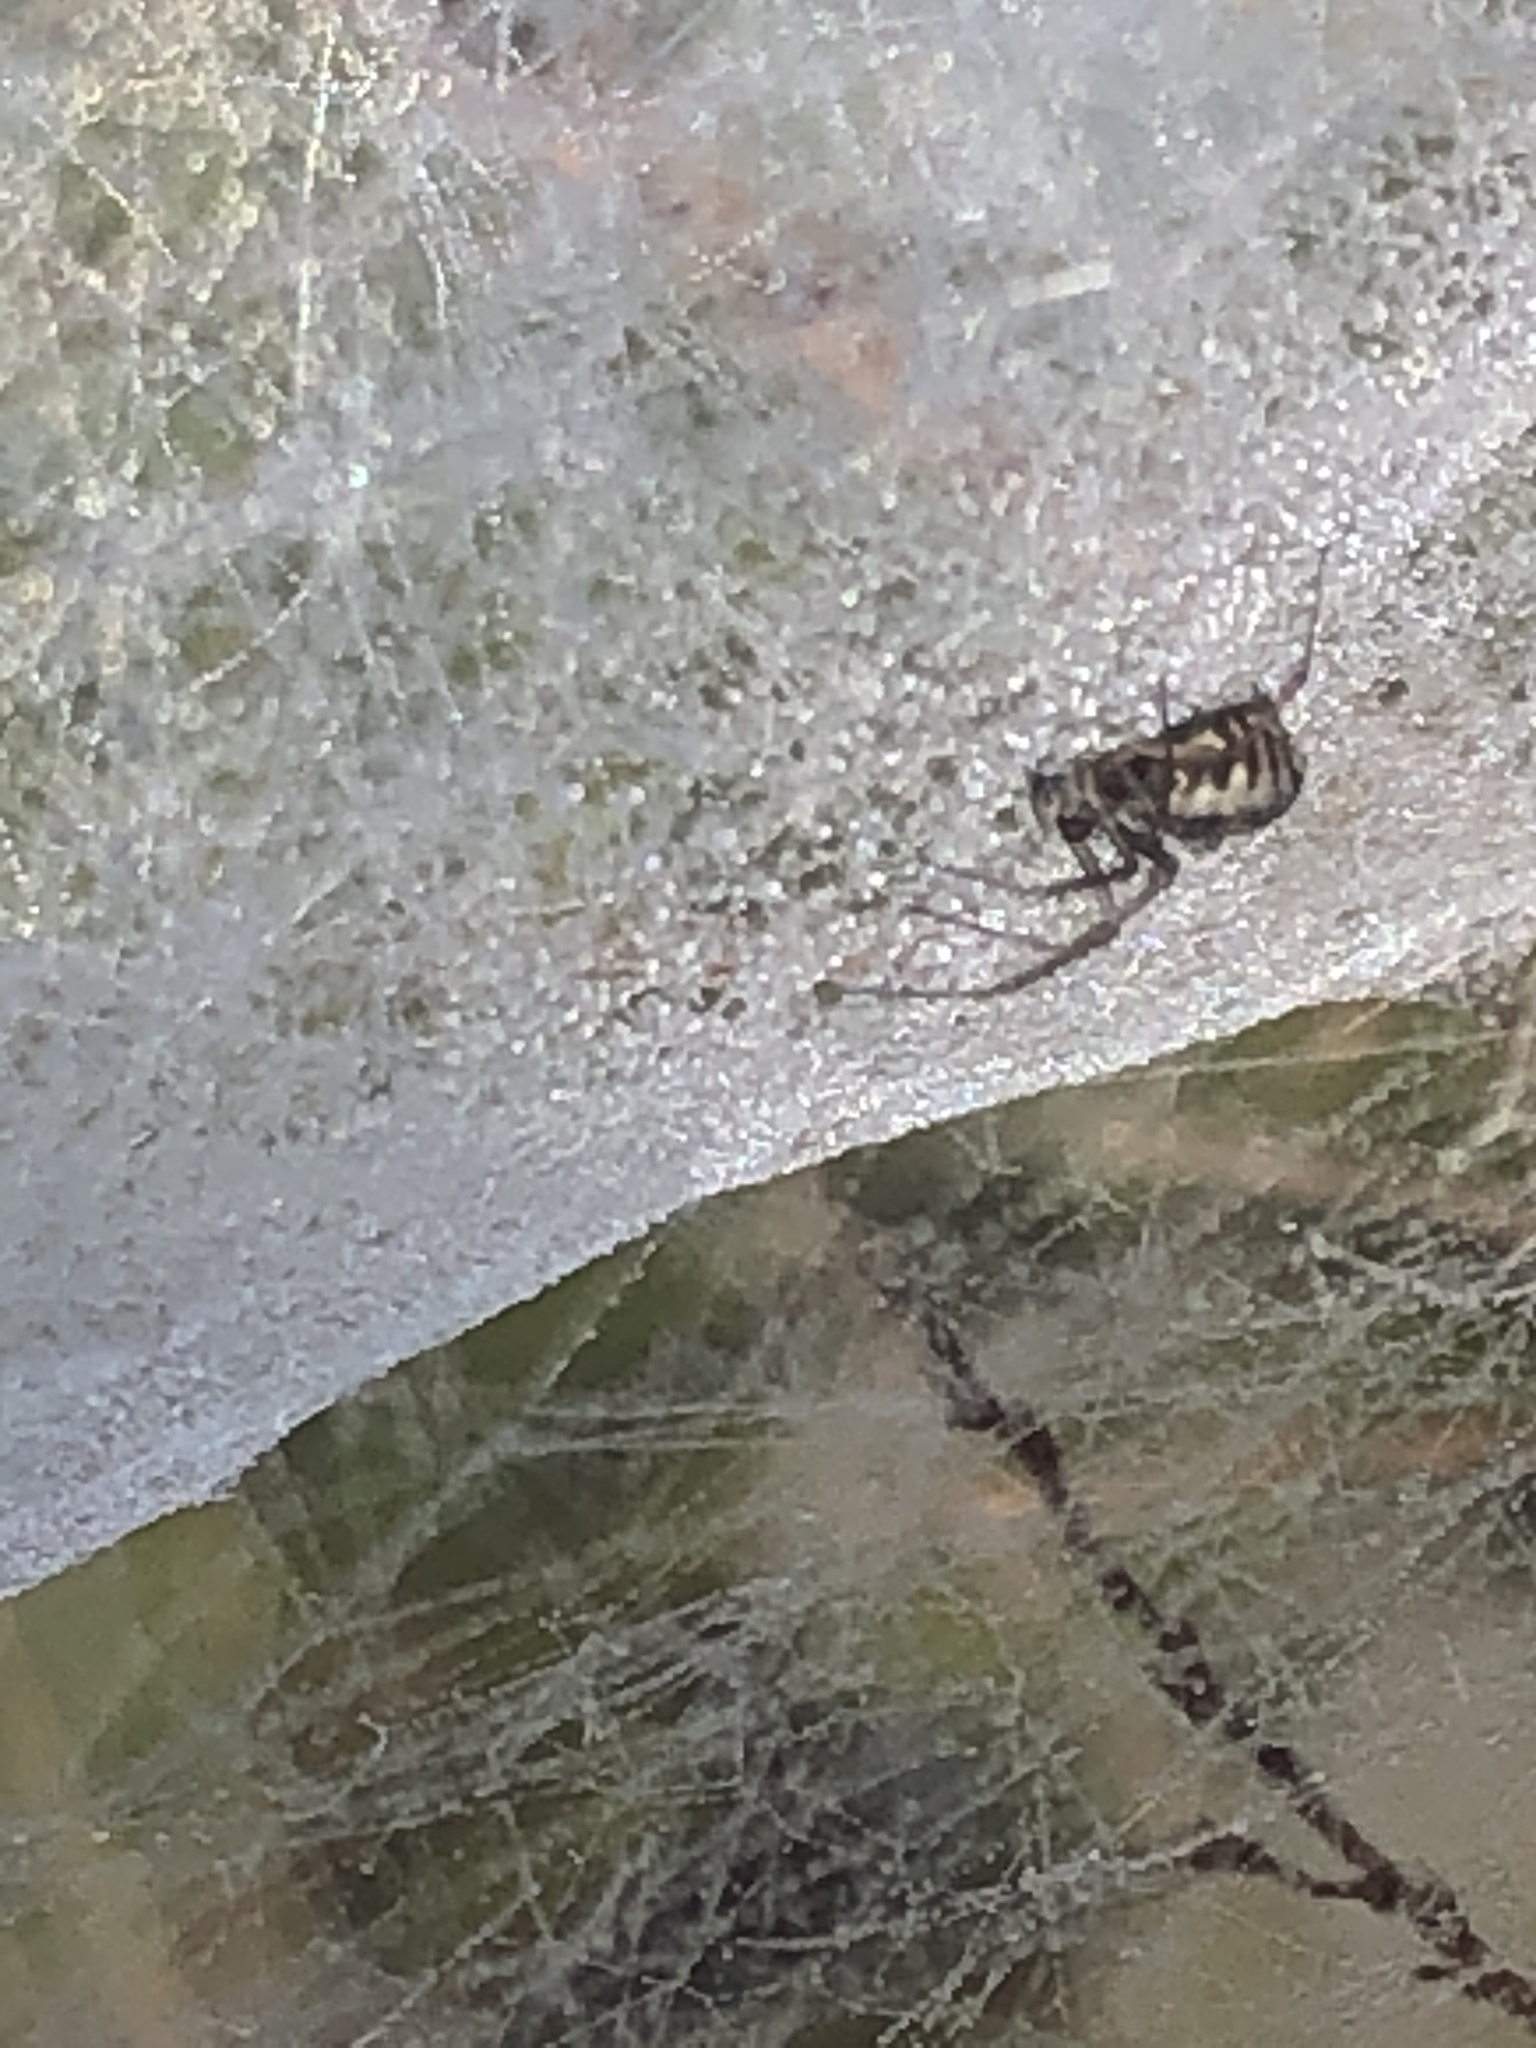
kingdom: Animalia
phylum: Arthropoda
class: Arachnida
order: Araneae
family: Linyphiidae
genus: Frontinella
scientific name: Frontinella pyramitela
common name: Bowl-and-doily spider
